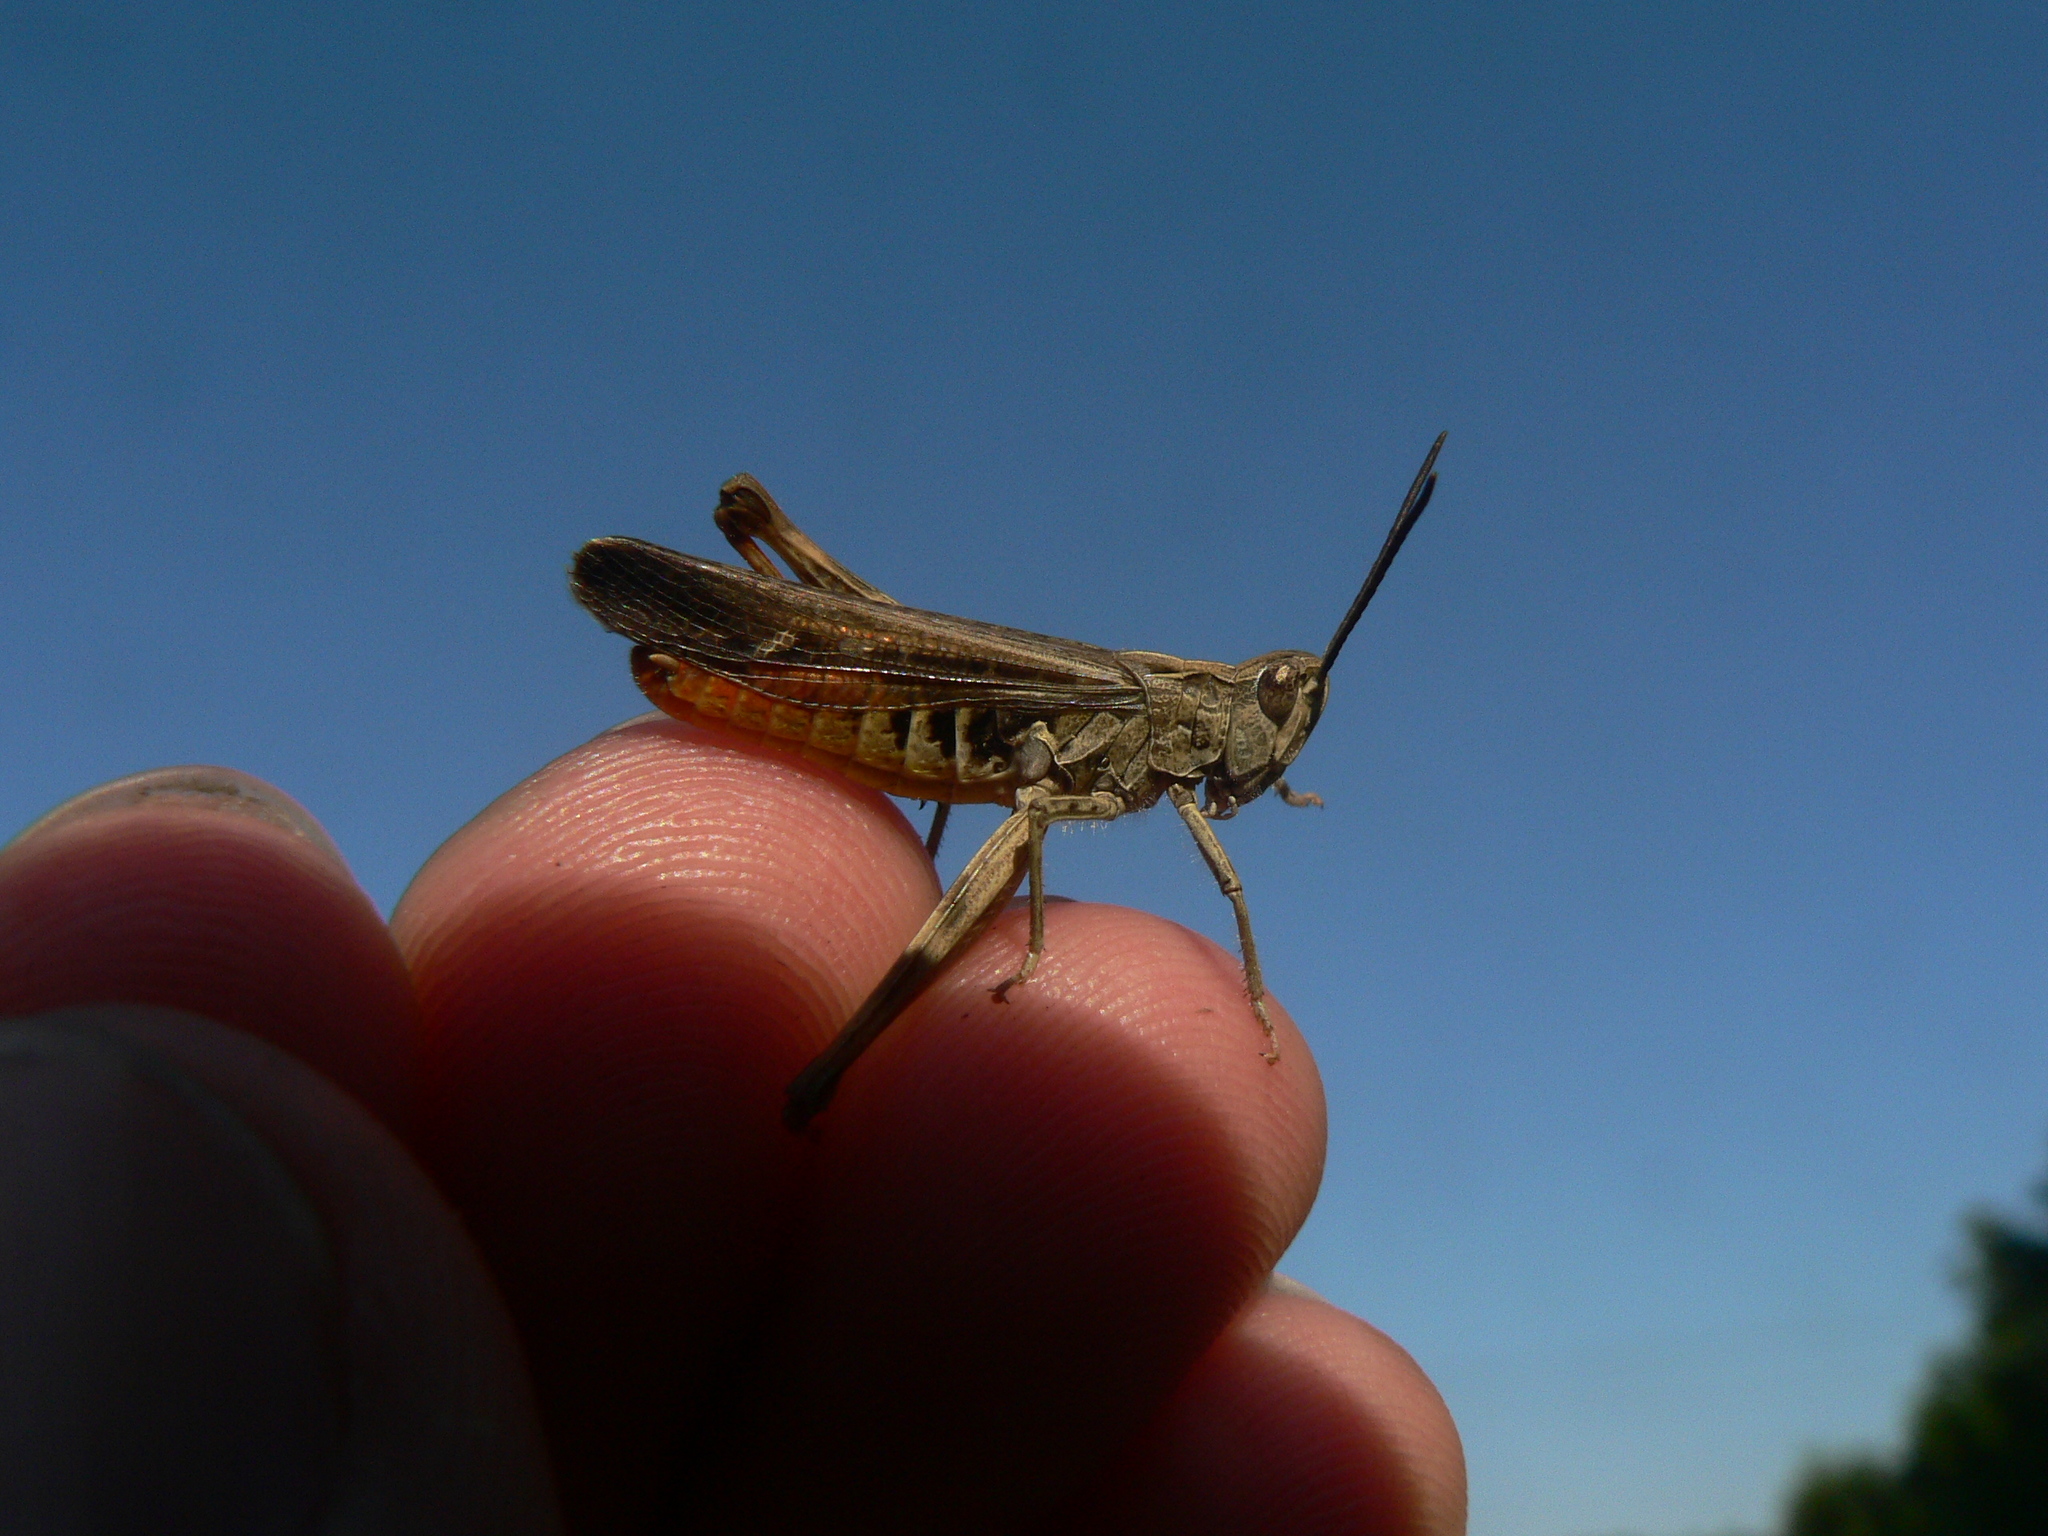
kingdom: Animalia
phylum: Arthropoda
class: Insecta
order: Orthoptera
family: Acrididae
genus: Chorthippus
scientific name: Chorthippus brunneus
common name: Field grasshopper
